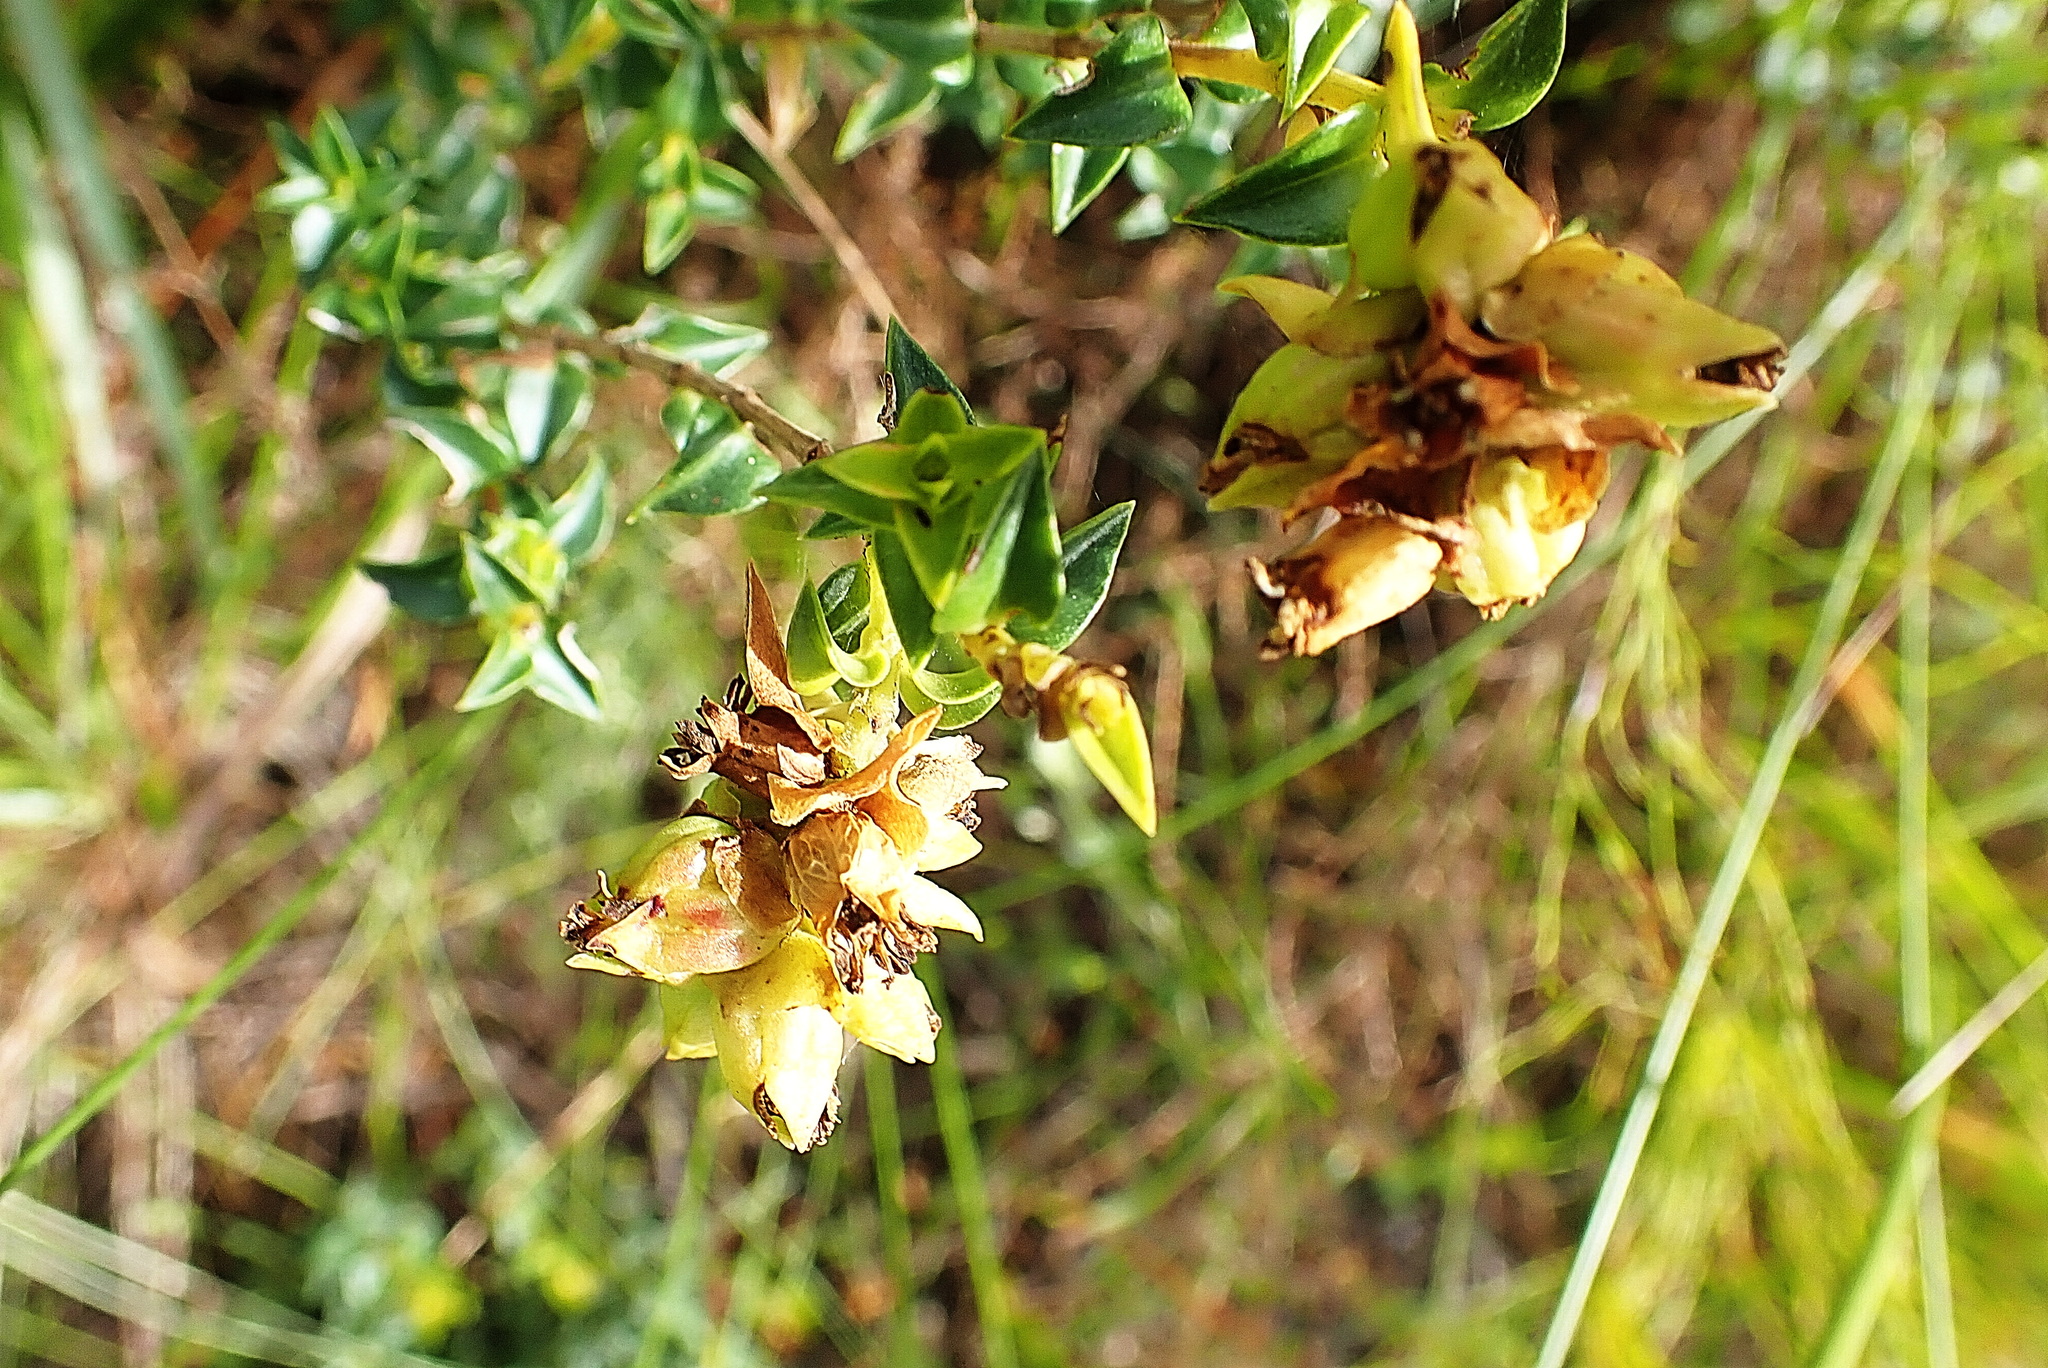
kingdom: Plantae
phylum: Tracheophyta
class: Magnoliopsida
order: Myrtales
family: Penaeaceae
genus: Penaea
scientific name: Penaea mucronata
